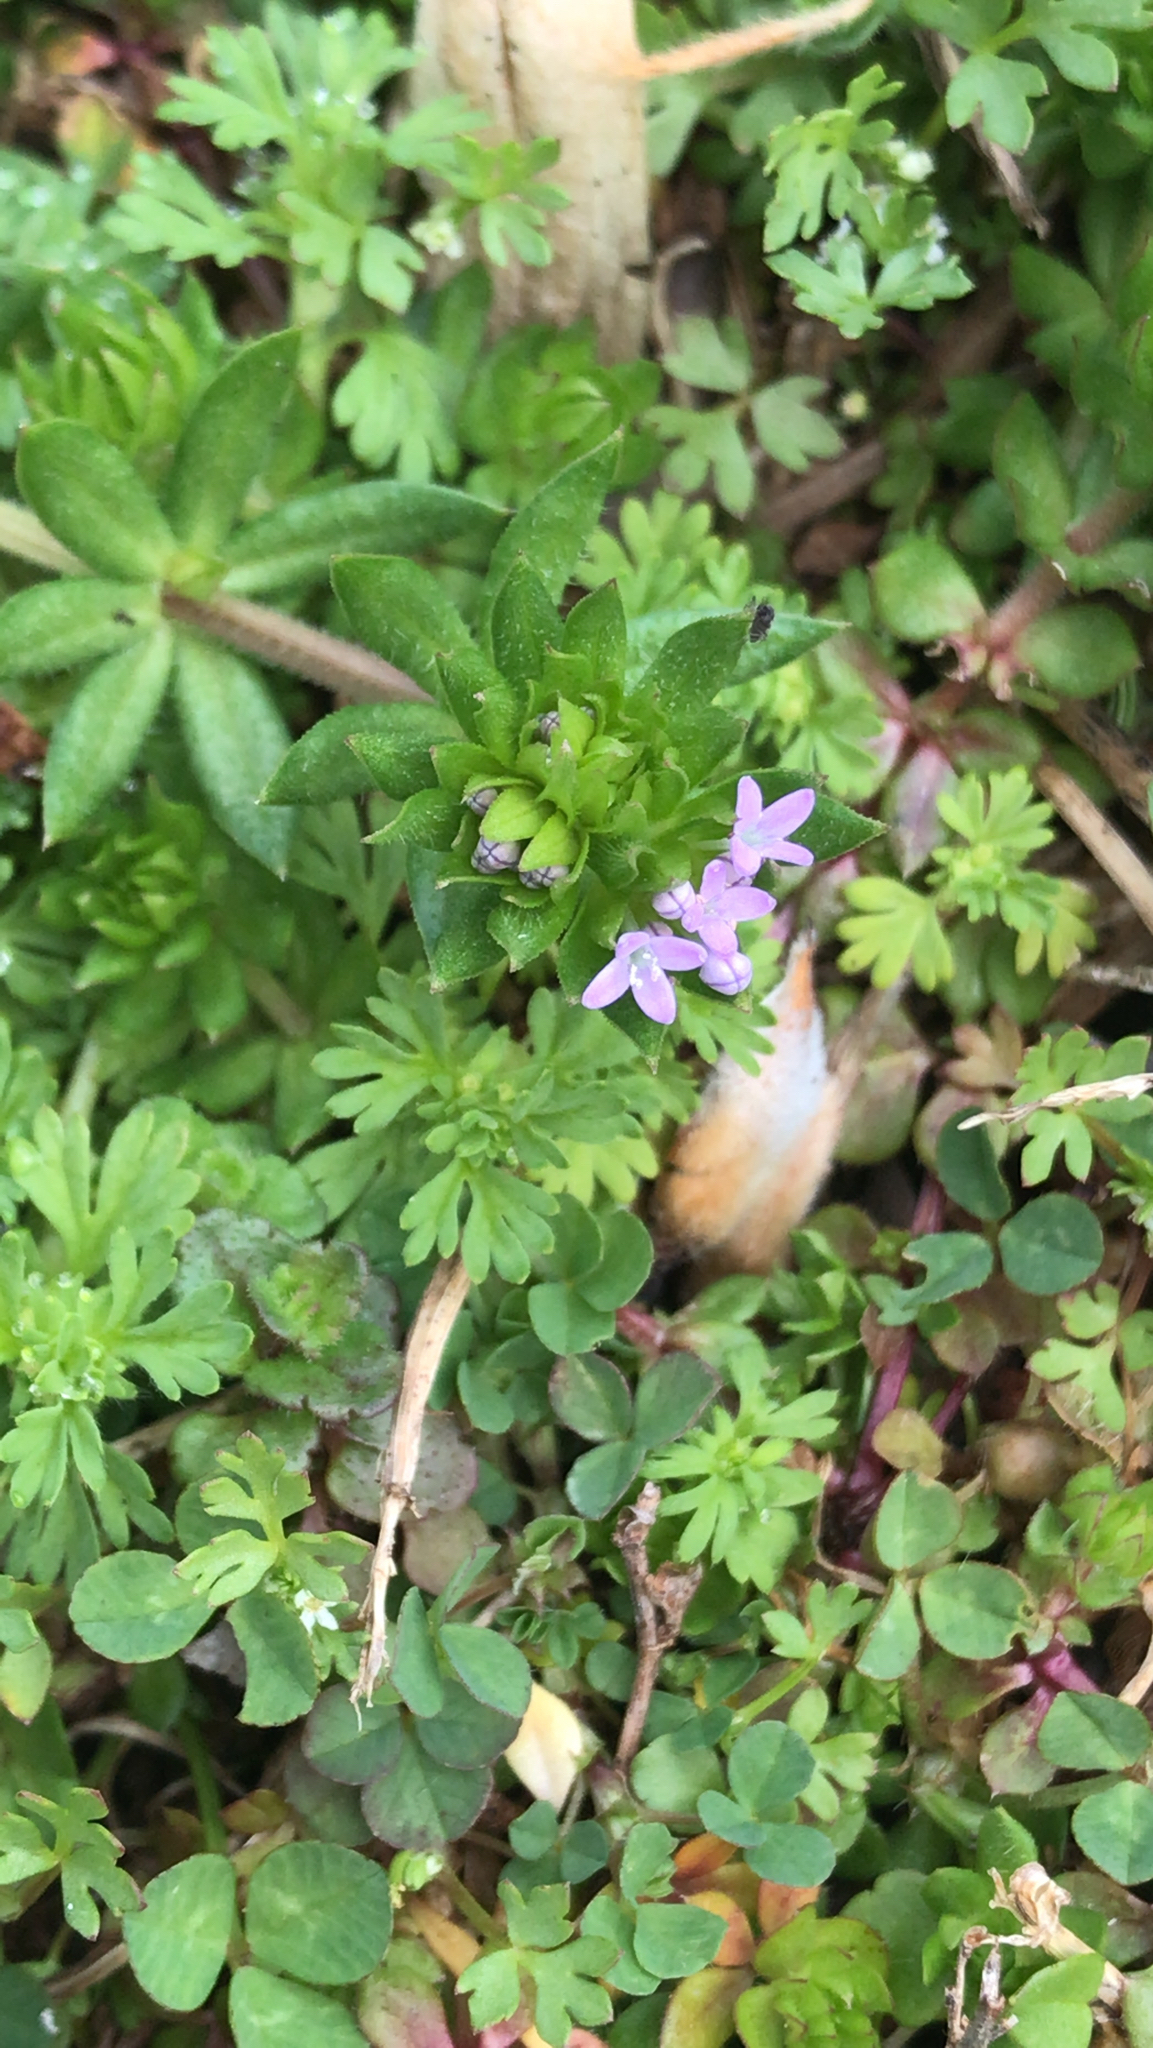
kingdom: Plantae
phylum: Tracheophyta
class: Magnoliopsida
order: Gentianales
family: Rubiaceae
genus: Sherardia
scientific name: Sherardia arvensis
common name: Field madder
